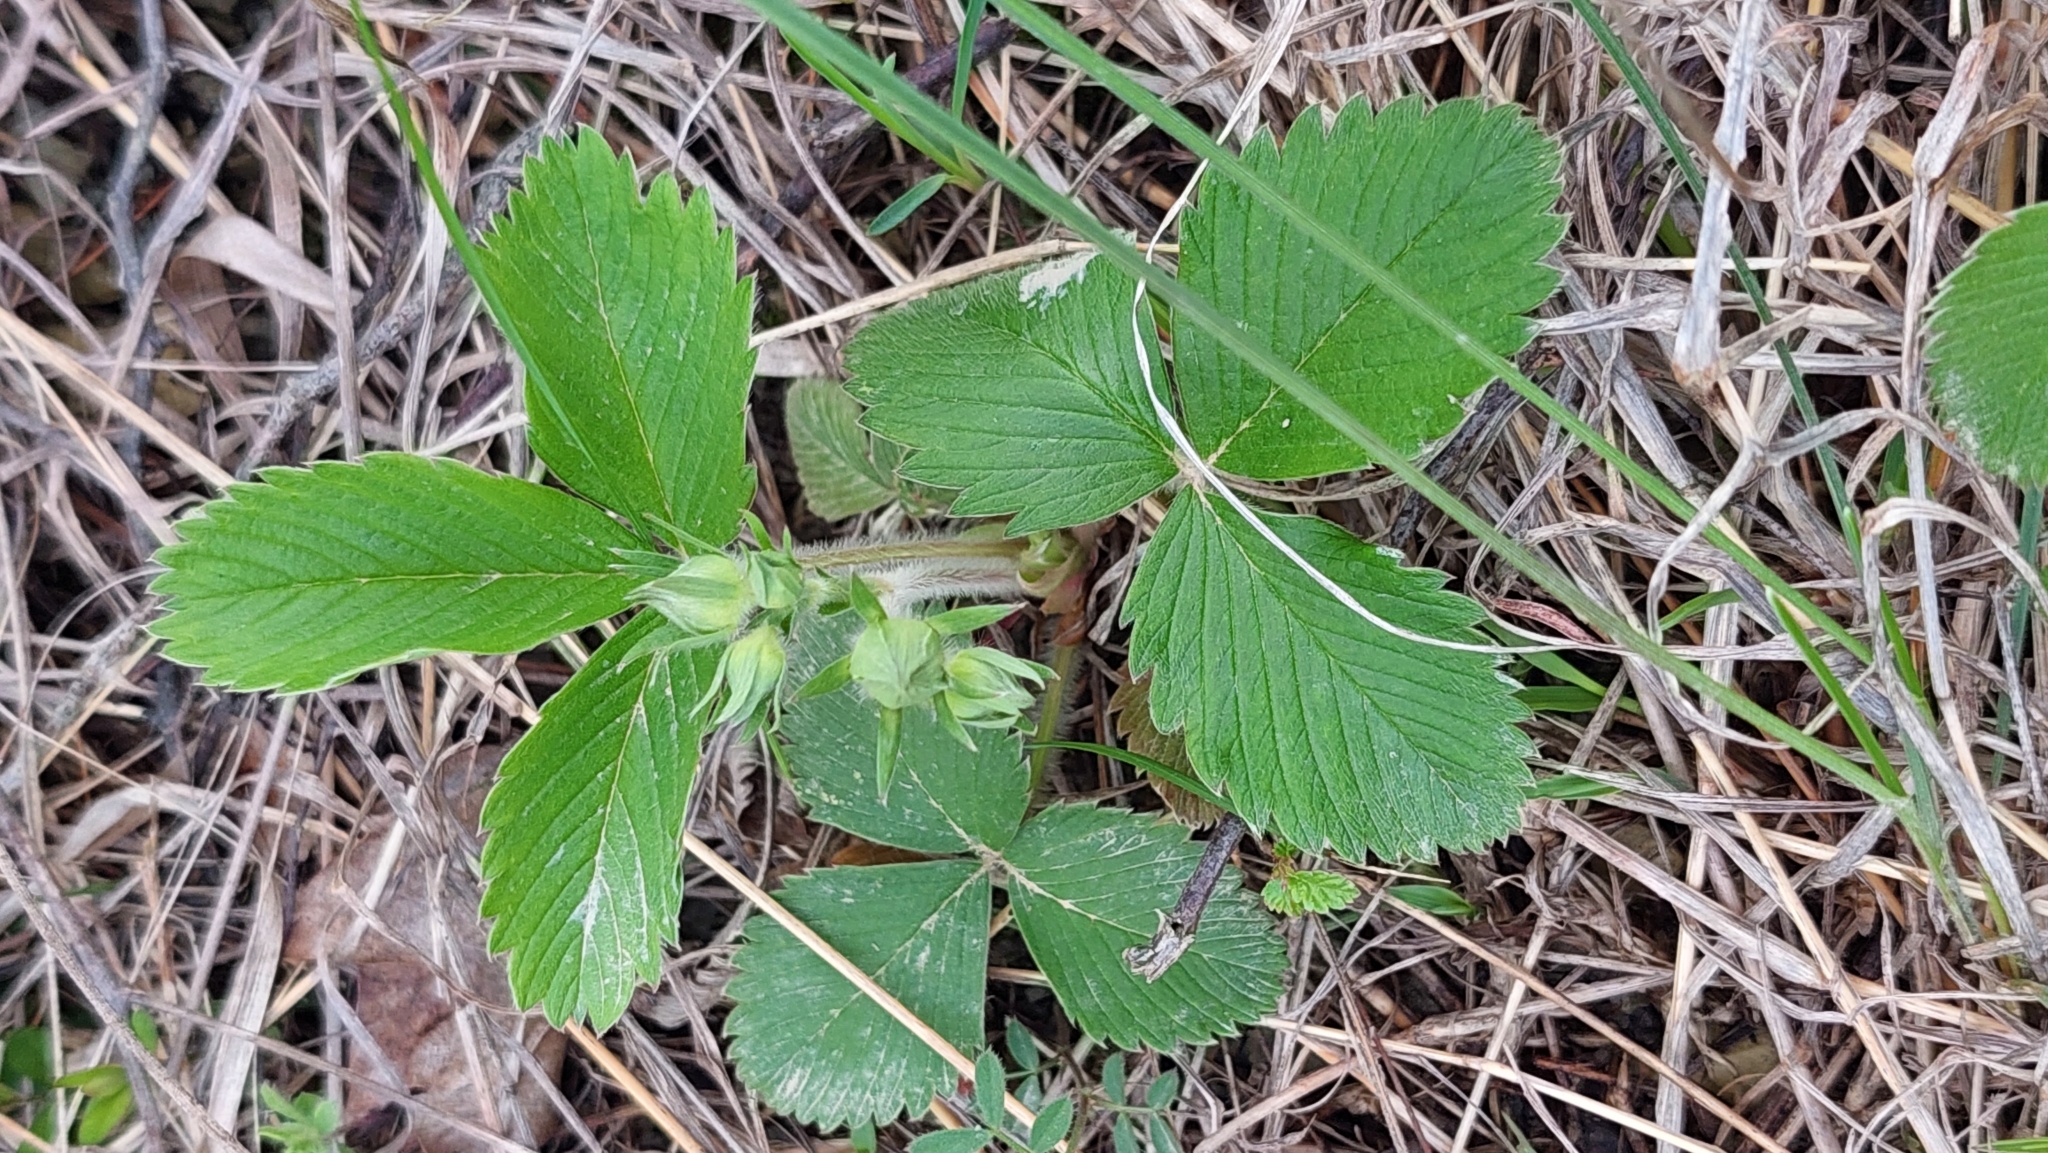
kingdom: Plantae
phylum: Tracheophyta
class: Magnoliopsida
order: Rosales
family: Rosaceae
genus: Fragaria
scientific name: Fragaria ananassa
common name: Garden strawberry
